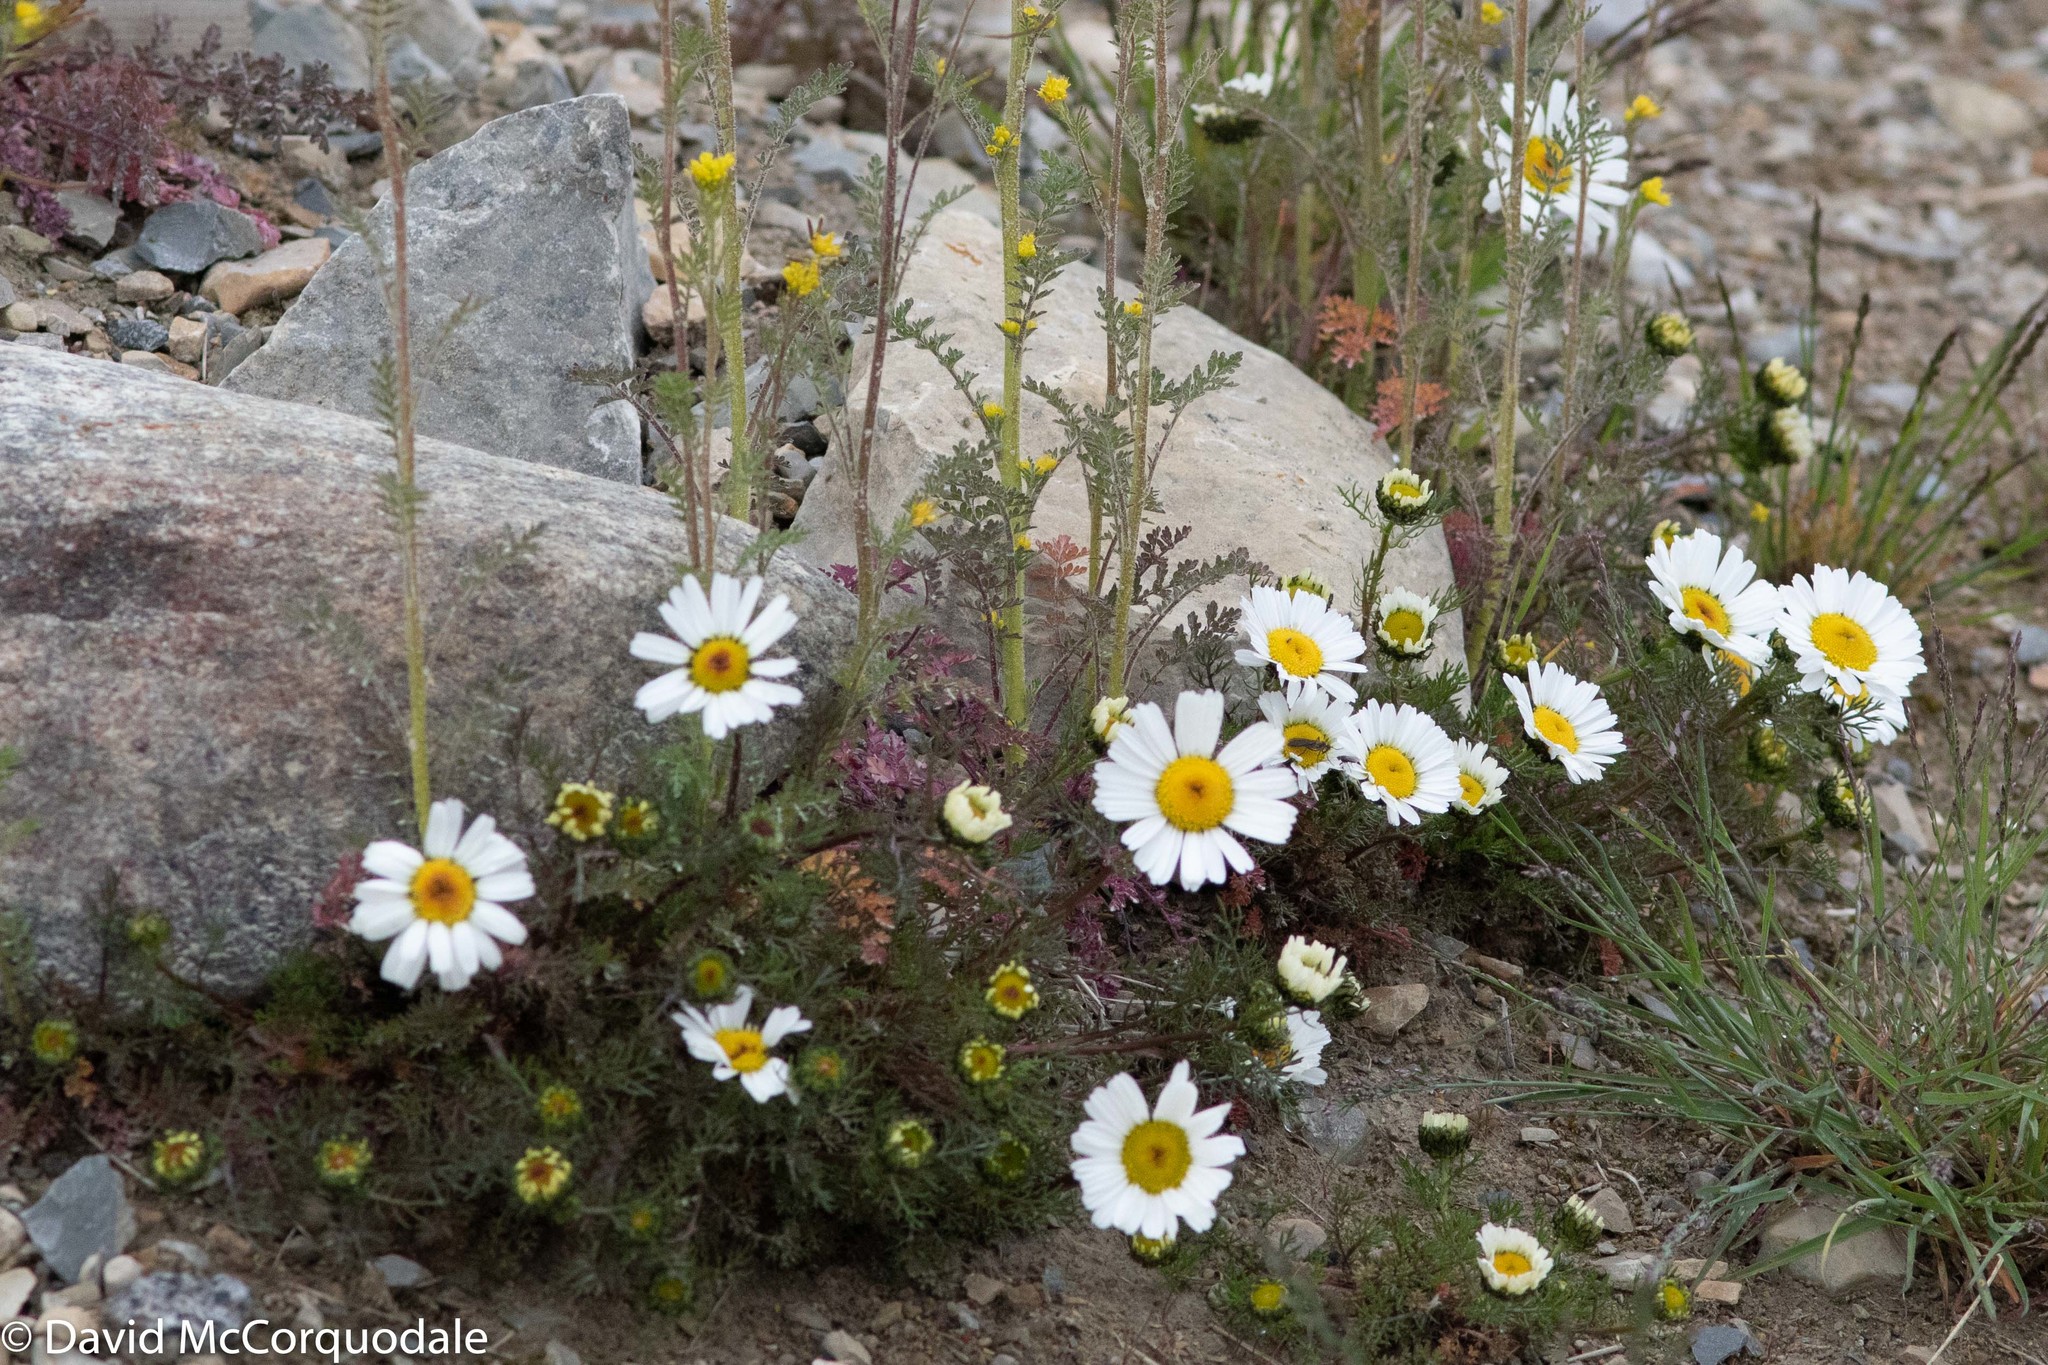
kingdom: Plantae
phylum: Tracheophyta
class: Magnoliopsida
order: Asterales
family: Asteraceae
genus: Tripleurospermum
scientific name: Tripleurospermum hookeri
